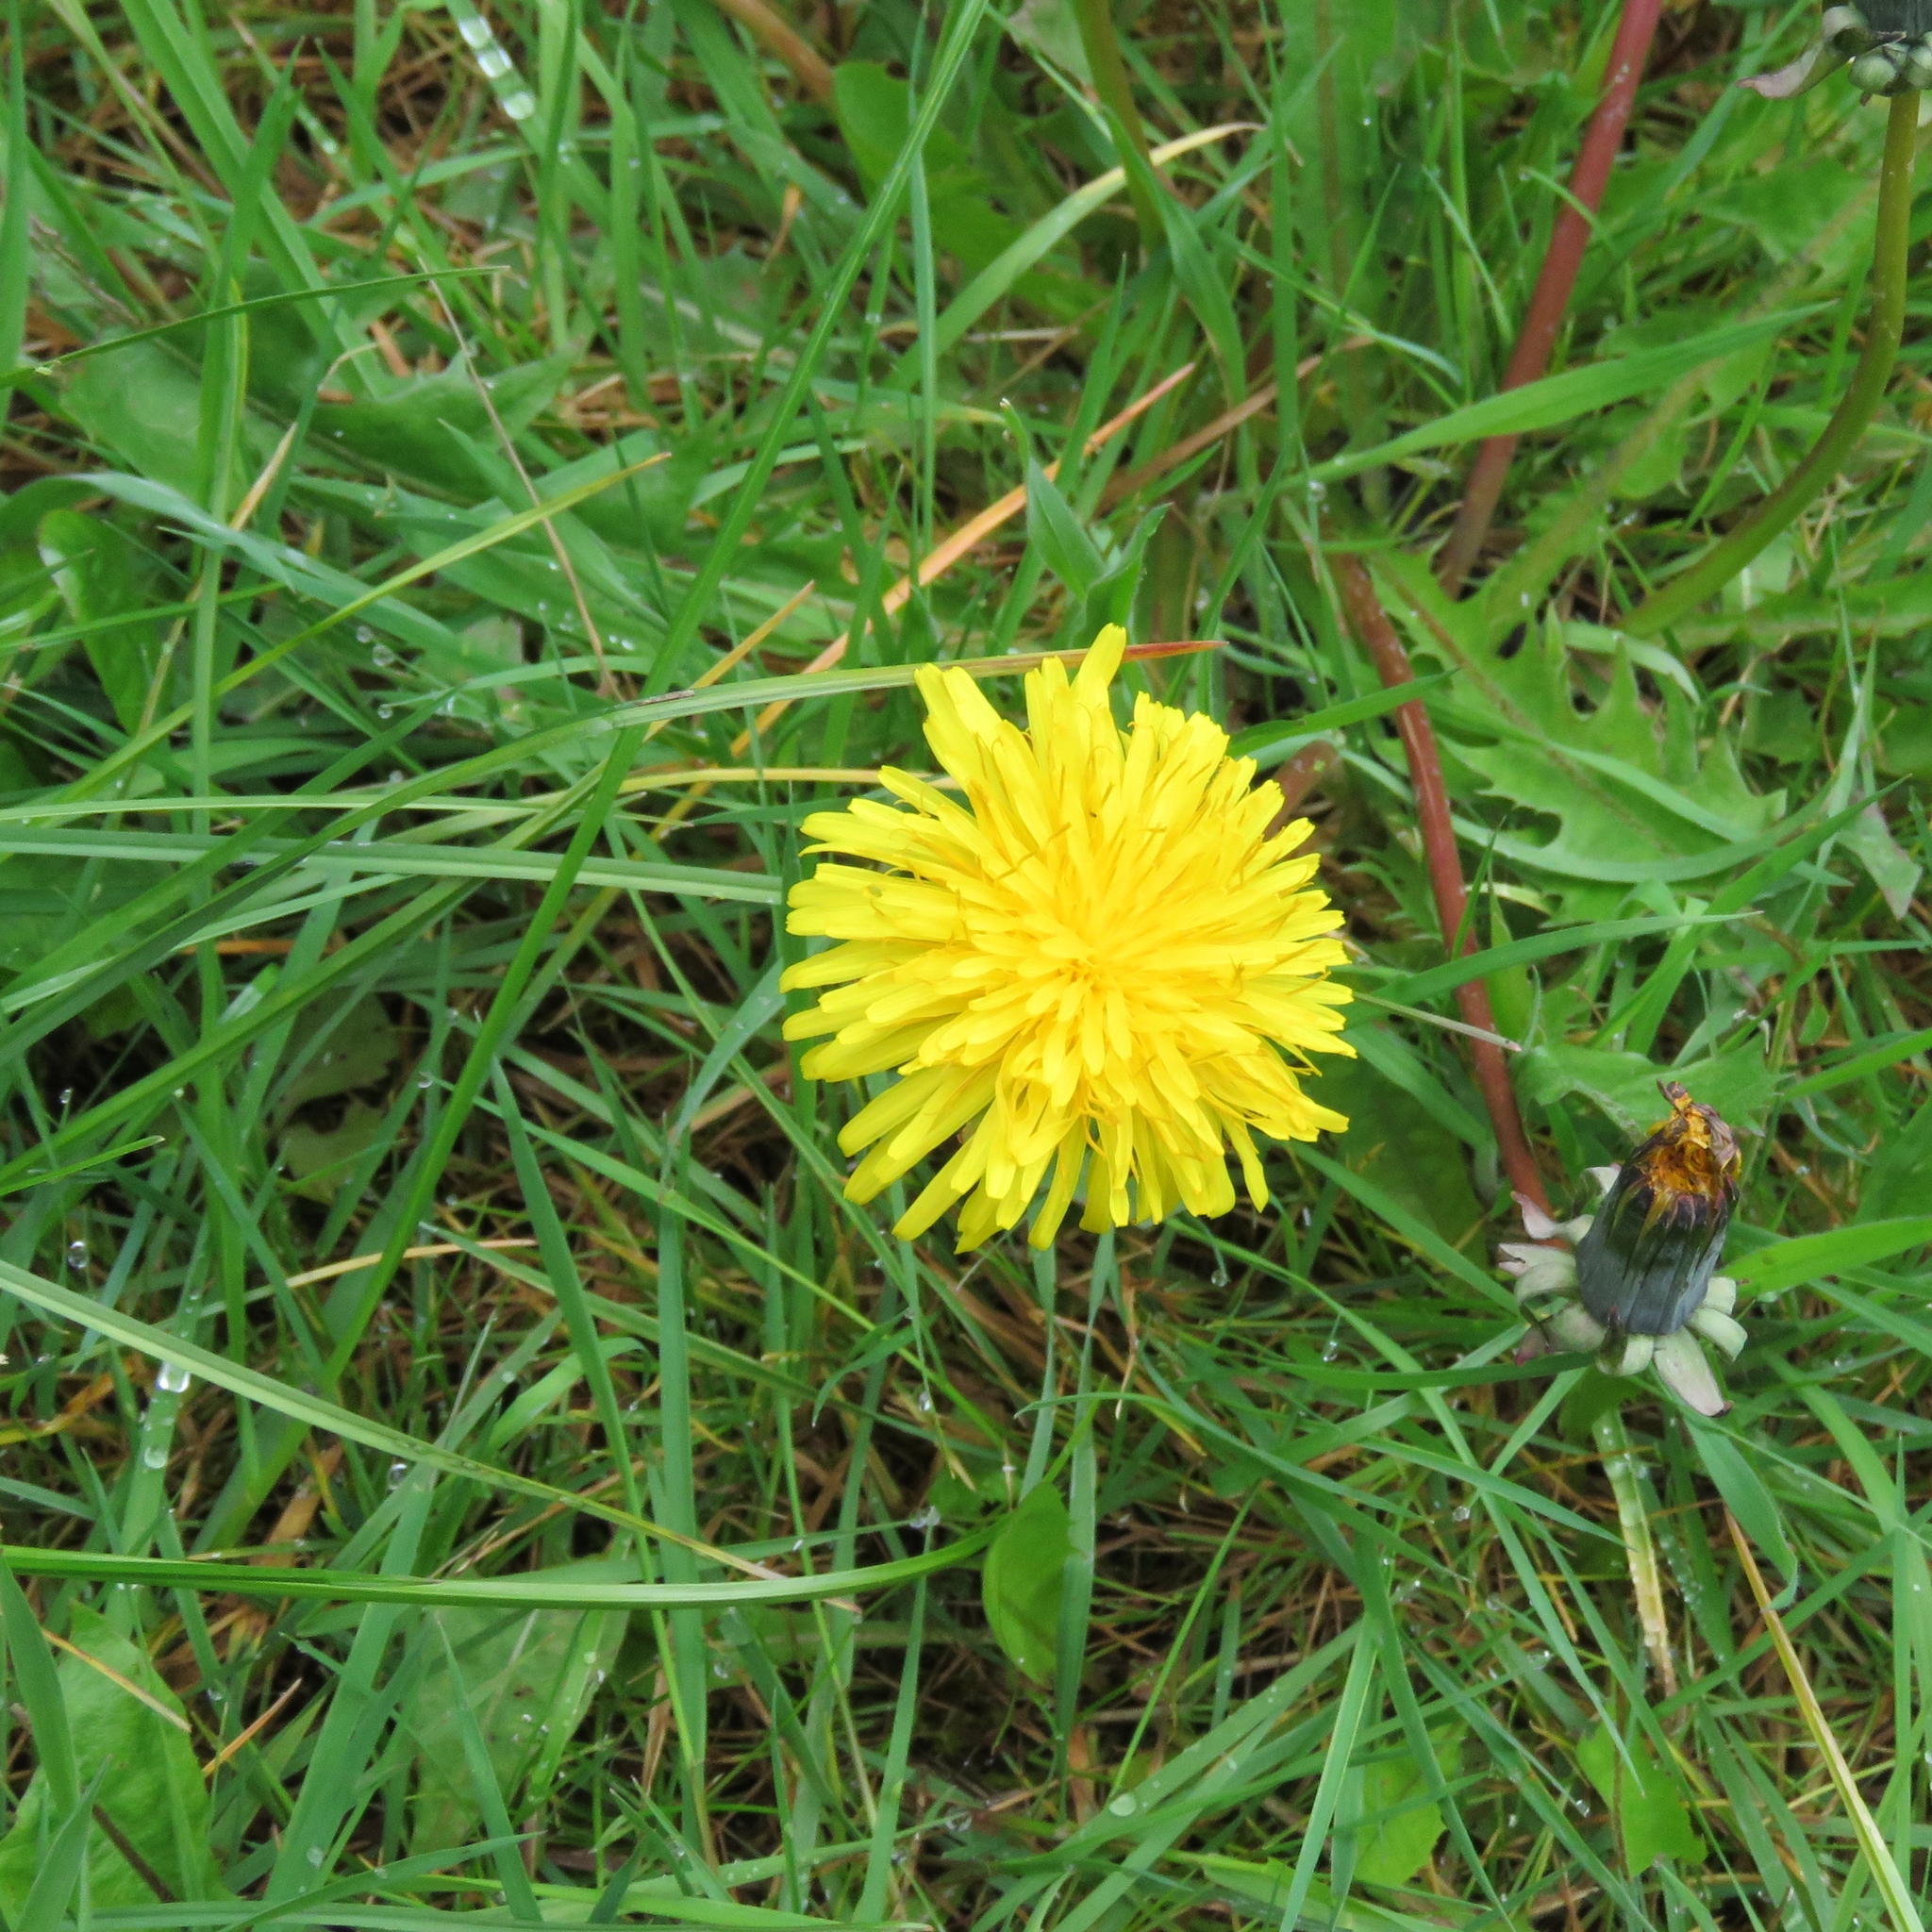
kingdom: Plantae
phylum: Tracheophyta
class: Magnoliopsida
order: Asterales
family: Asteraceae
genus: Taraxacum
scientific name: Taraxacum officinale
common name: Common dandelion
